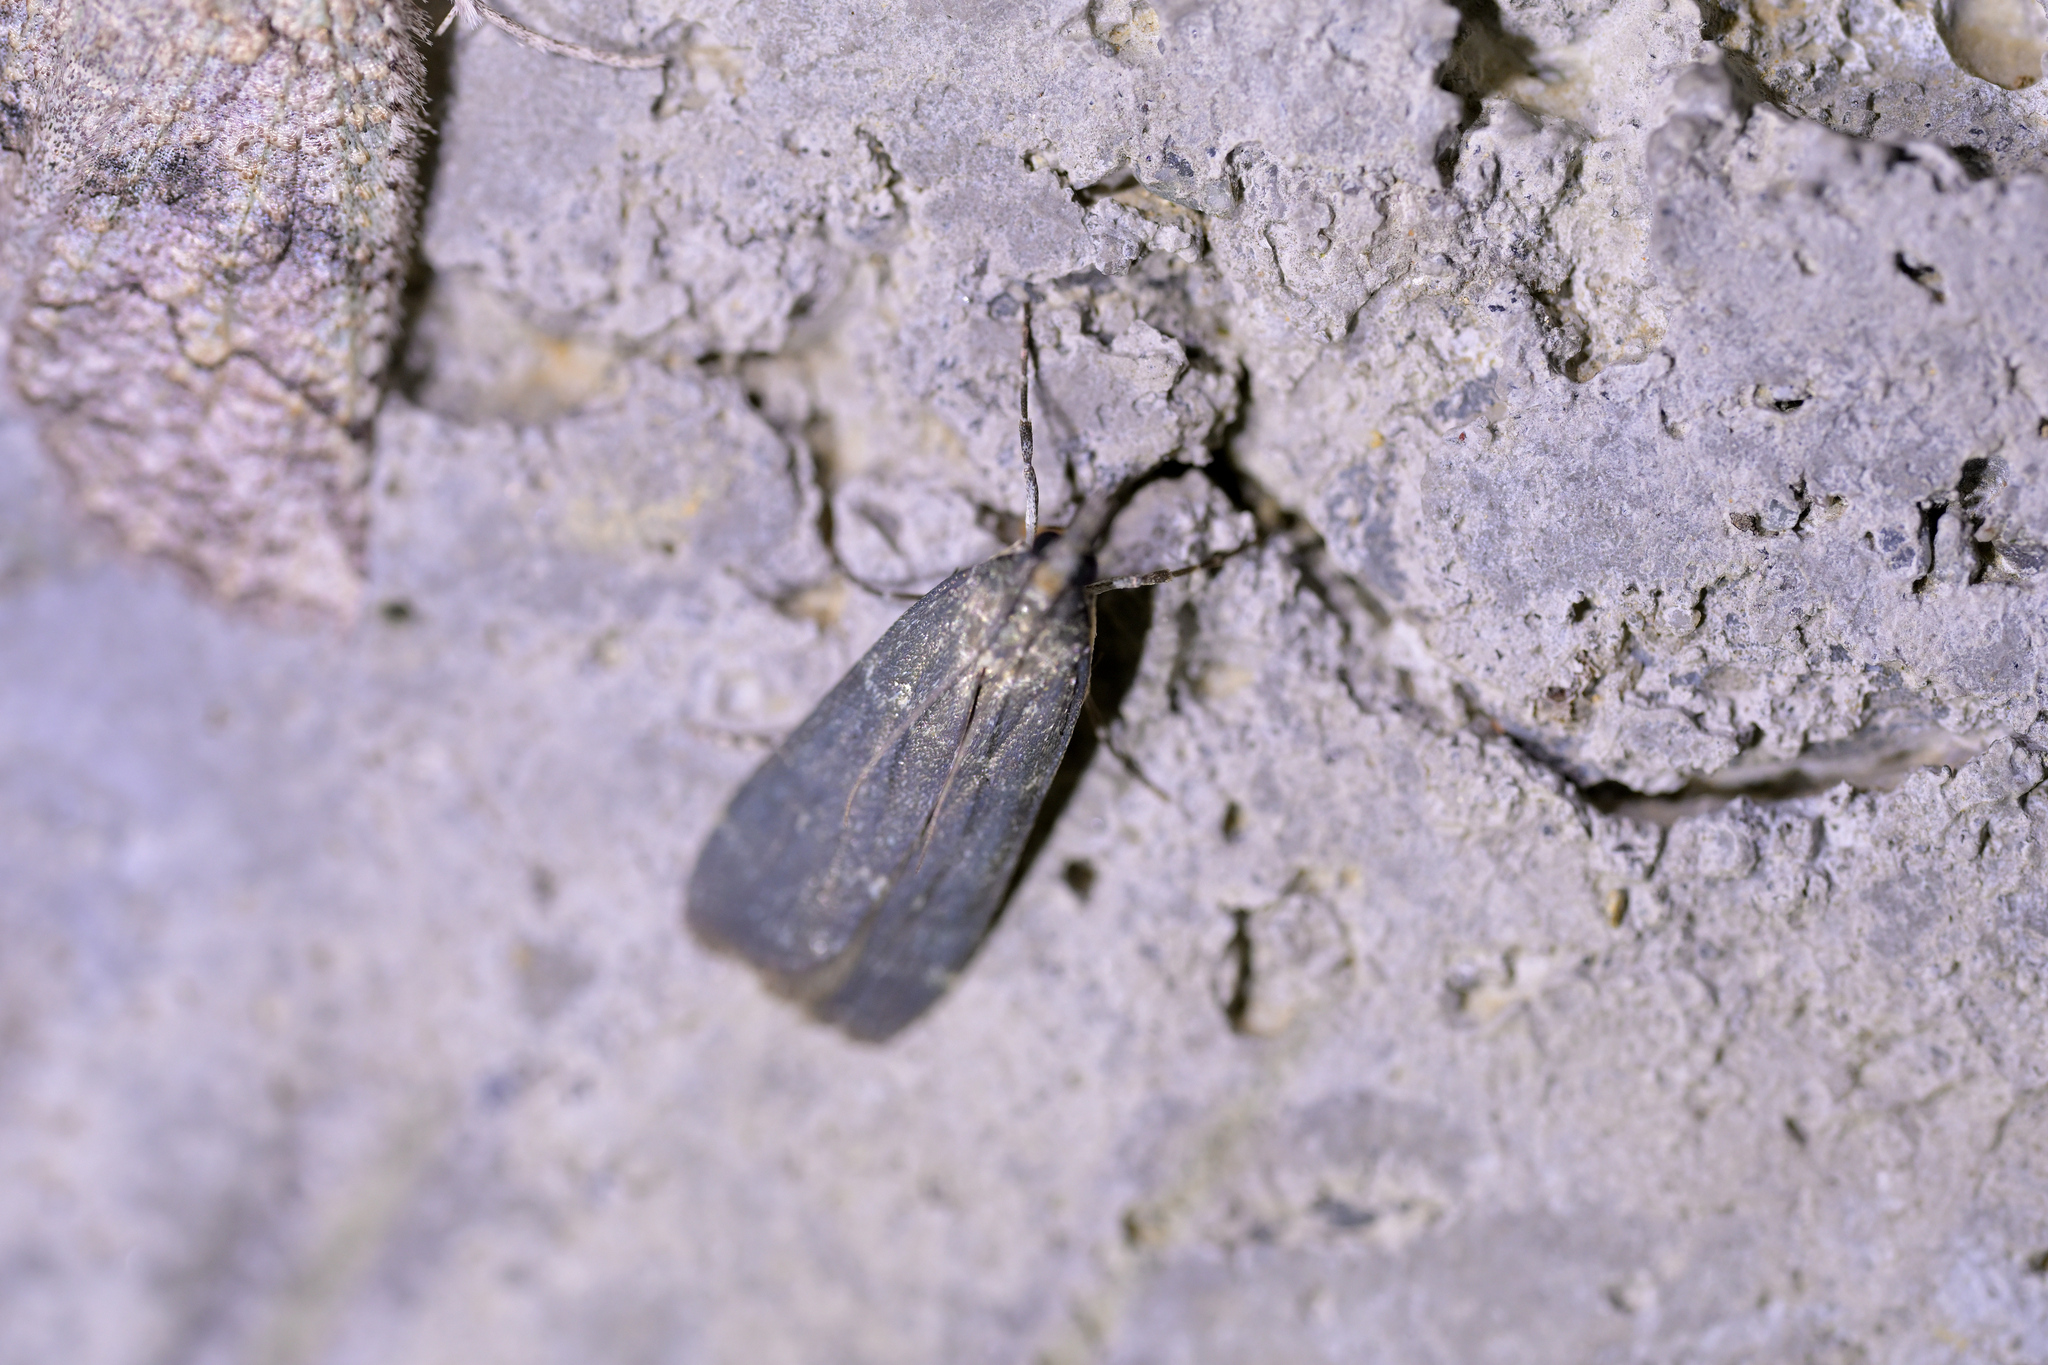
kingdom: Animalia
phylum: Arthropoda
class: Insecta
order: Lepidoptera
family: Crambidae
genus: Eudonia
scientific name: Eudonia cataxesta
